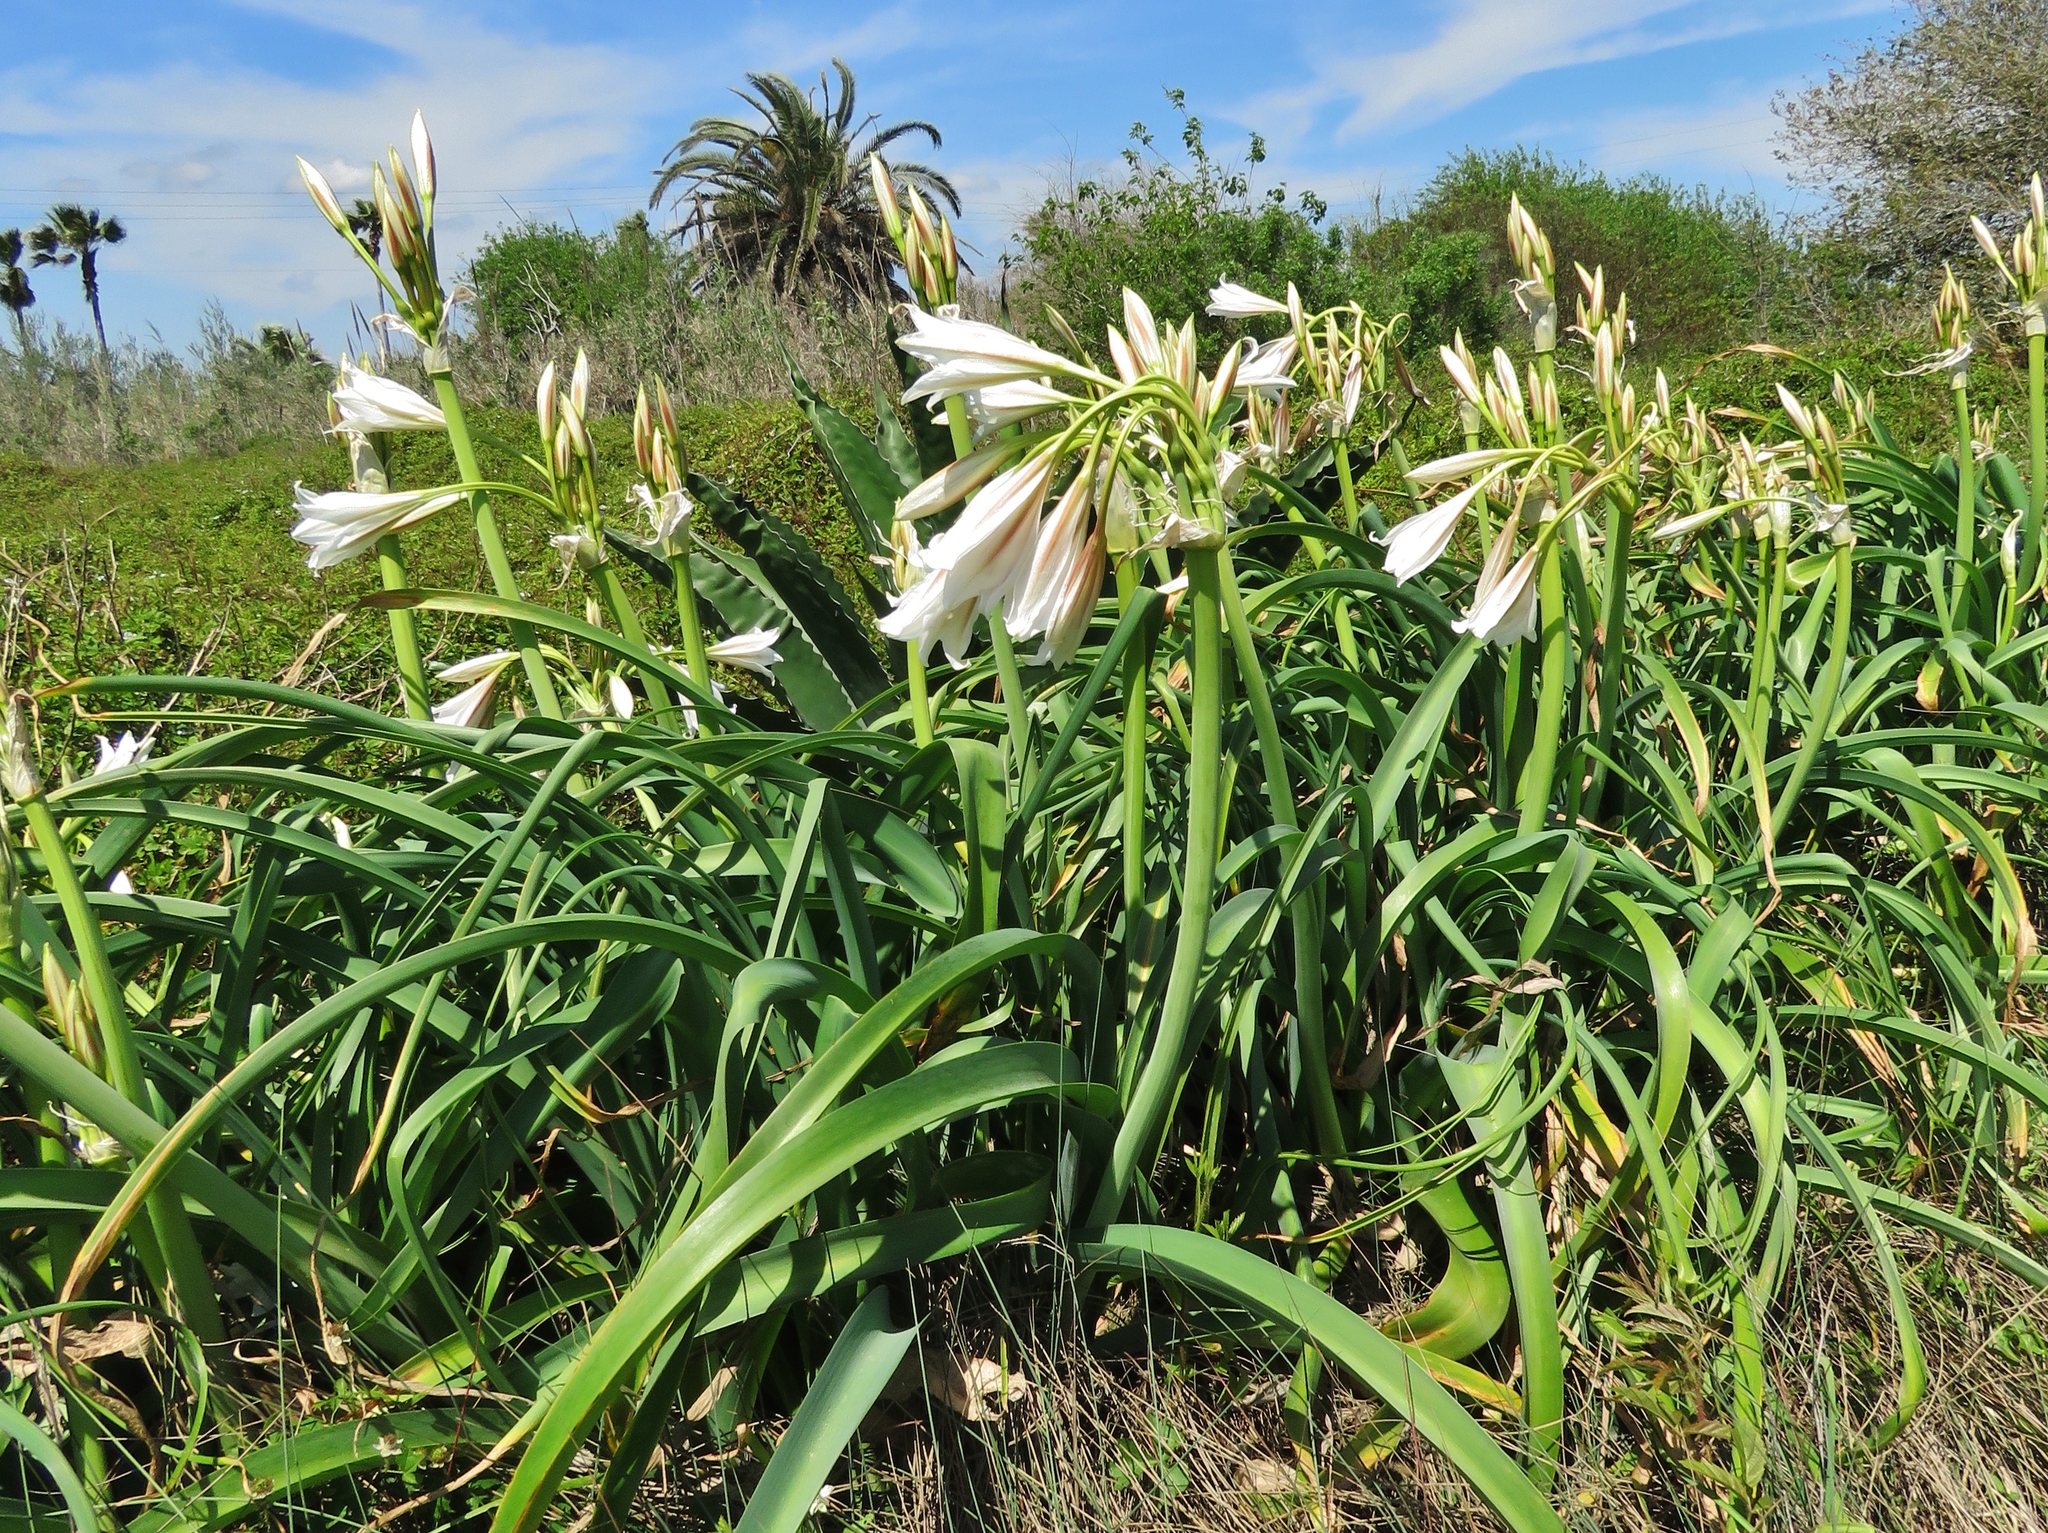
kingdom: Plantae
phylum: Tracheophyta
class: Liliopsida
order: Asparagales
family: Amaryllidaceae
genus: Crinum
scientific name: Crinum bulbispermum
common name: Hardy swamplily
